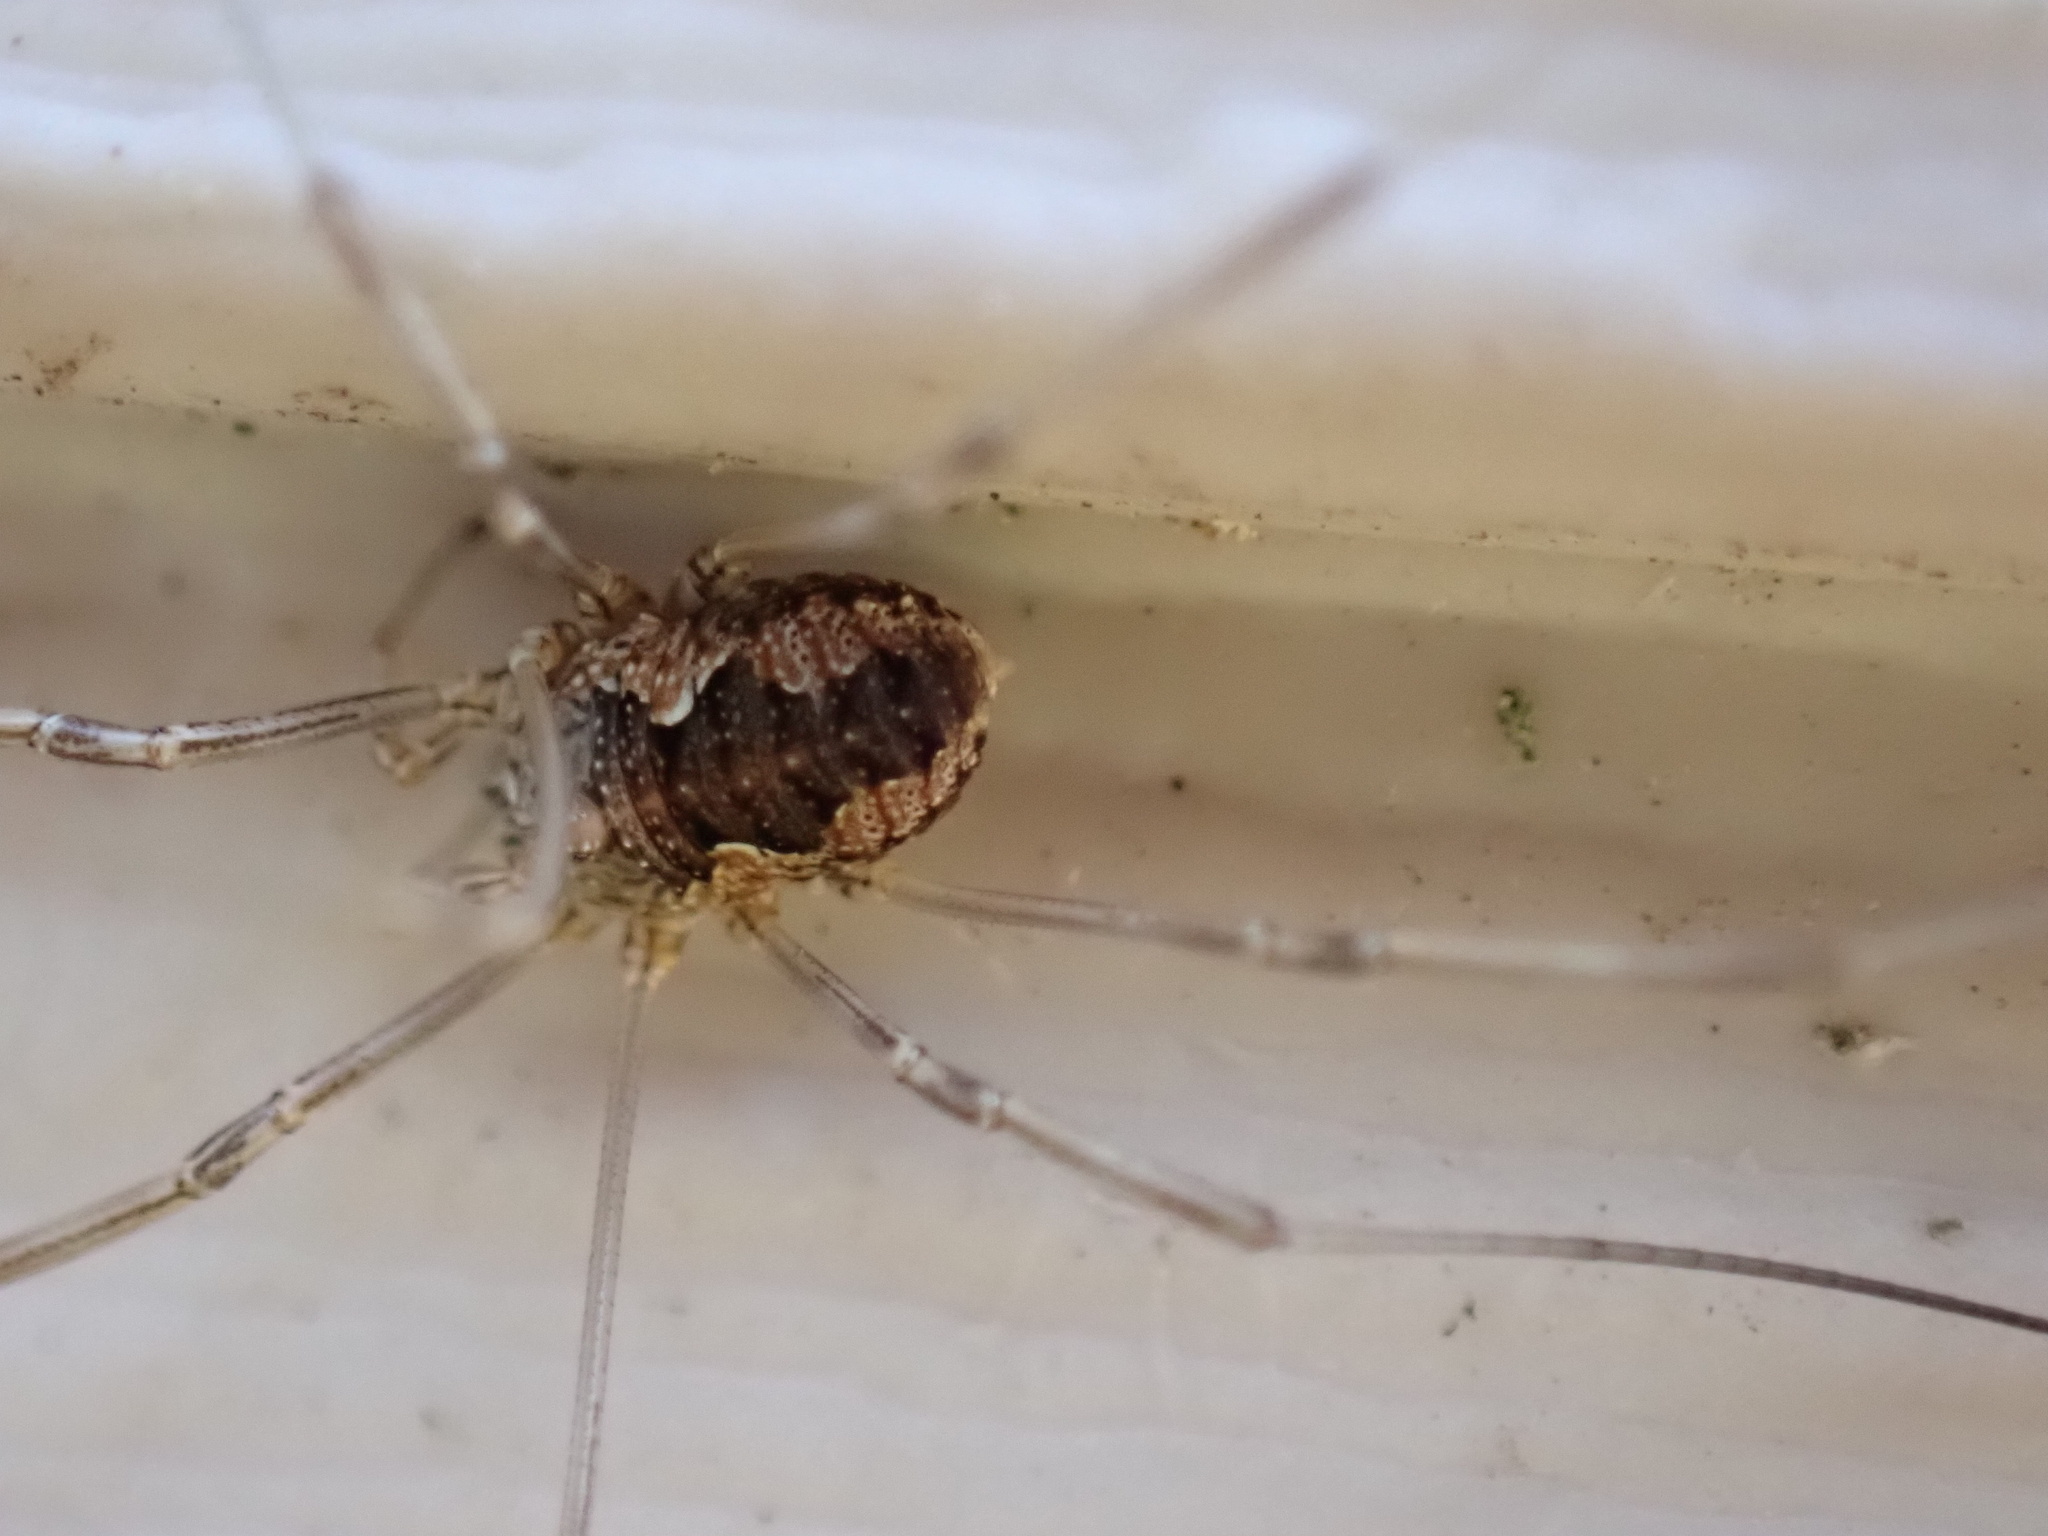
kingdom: Animalia
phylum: Arthropoda
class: Arachnida
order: Opiliones
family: Phalangiidae
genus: Phalangium
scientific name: Phalangium opilio
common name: Daddy longleg
